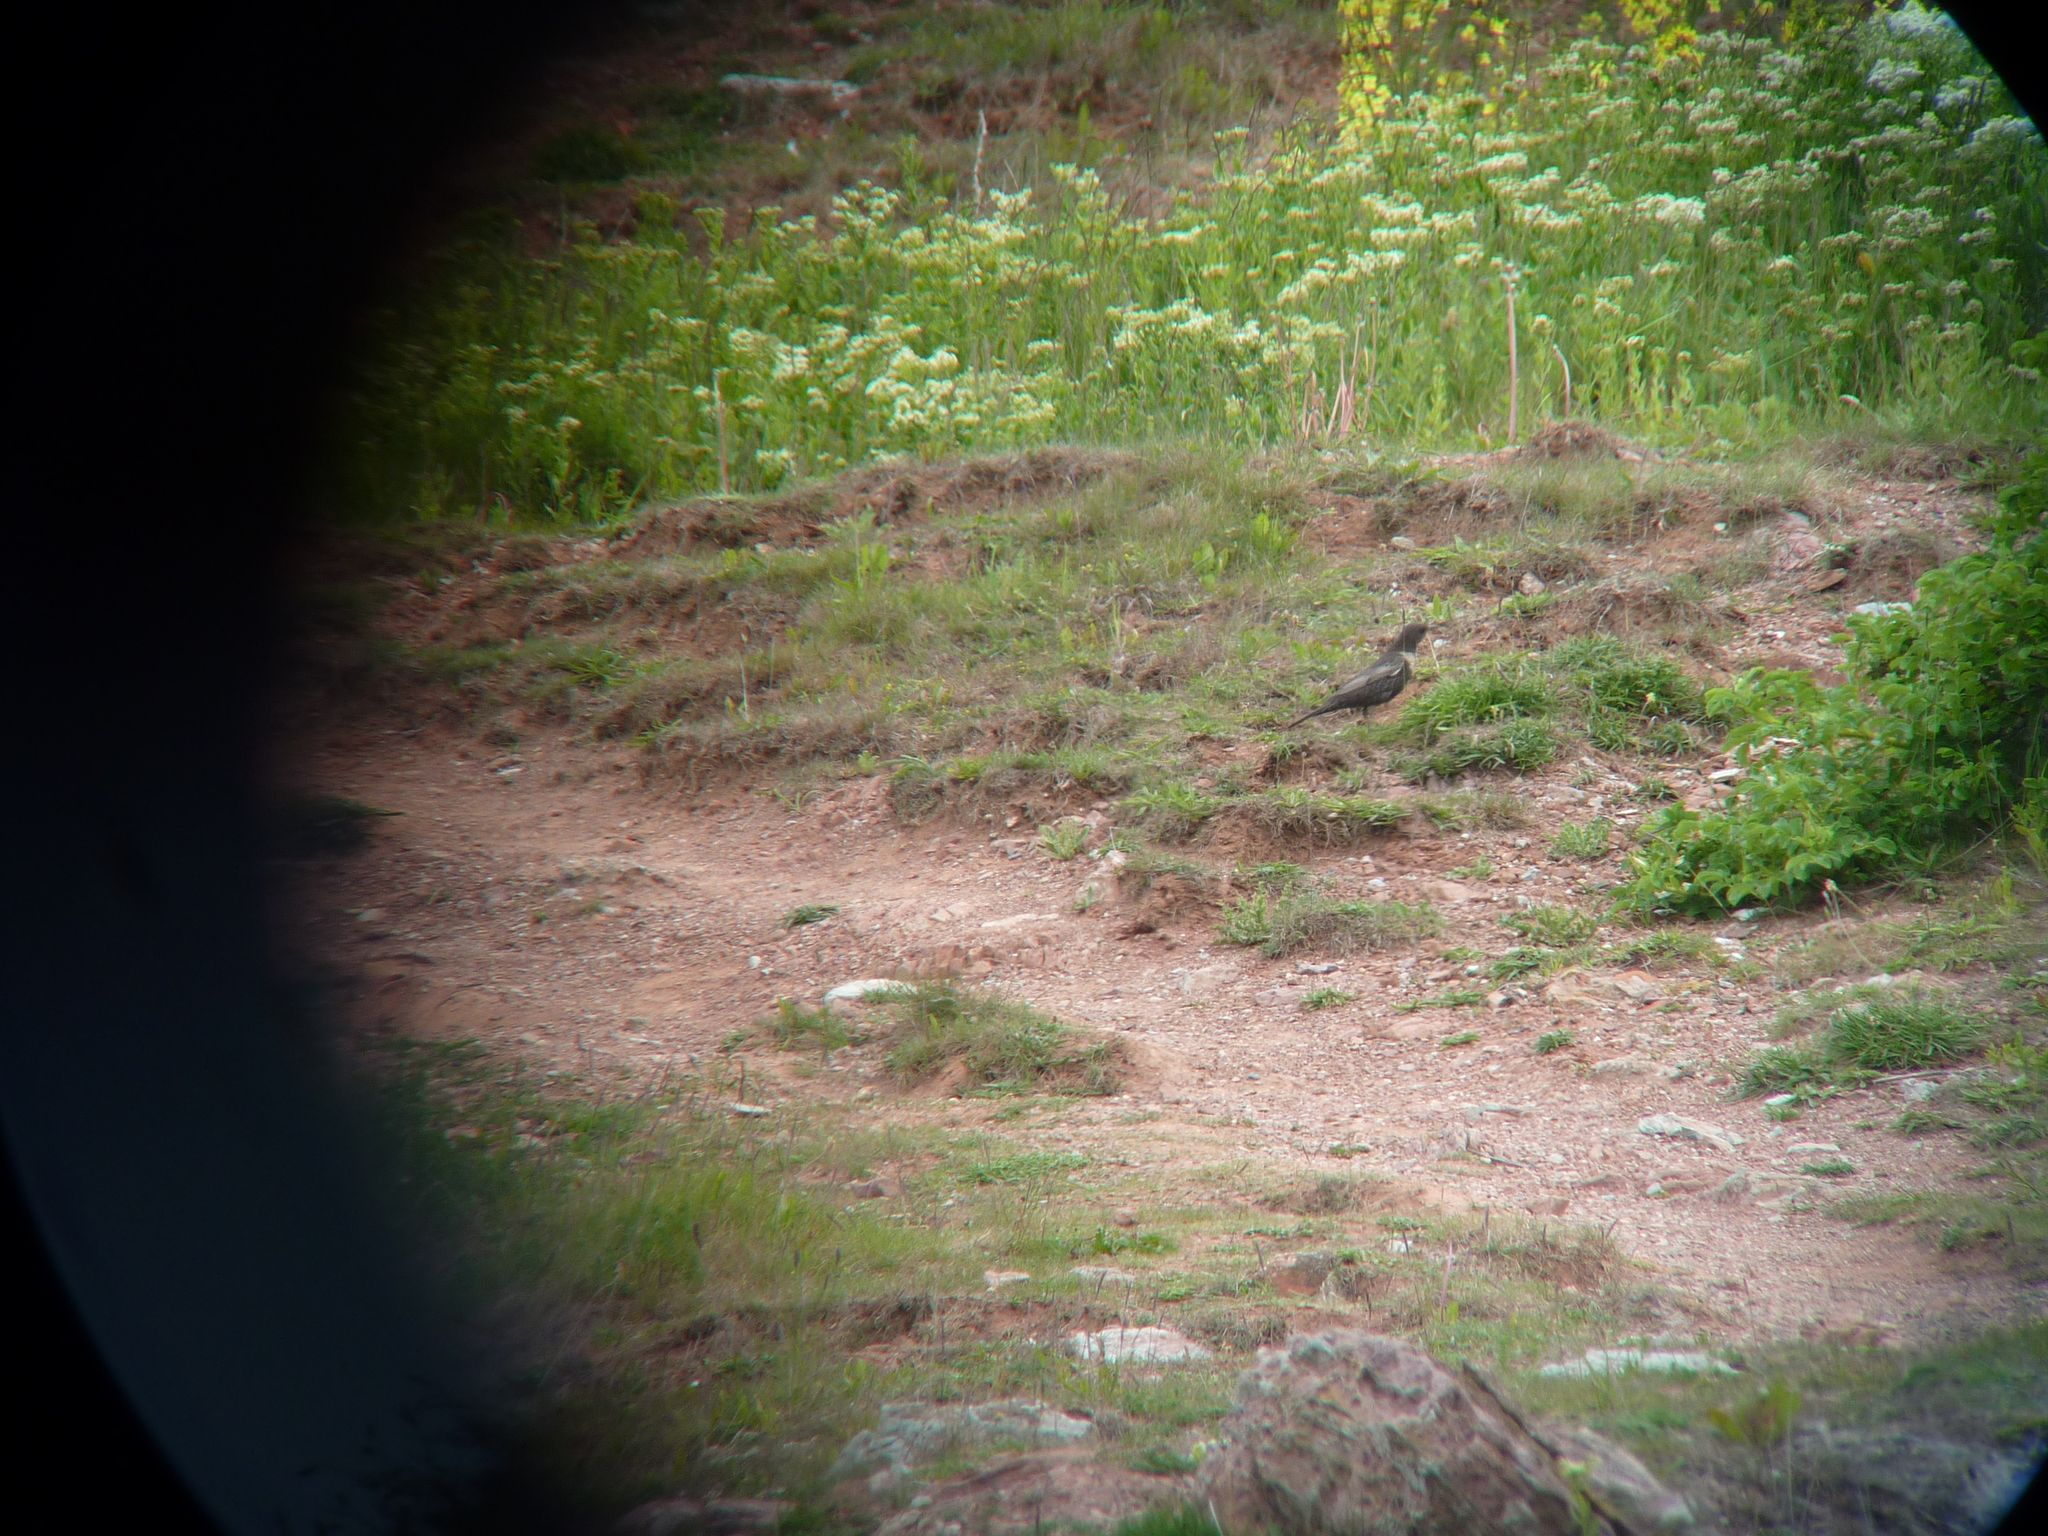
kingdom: Animalia
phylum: Chordata
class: Aves
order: Passeriformes
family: Turdidae
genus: Turdus
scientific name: Turdus torquatus
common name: Ring ouzel
